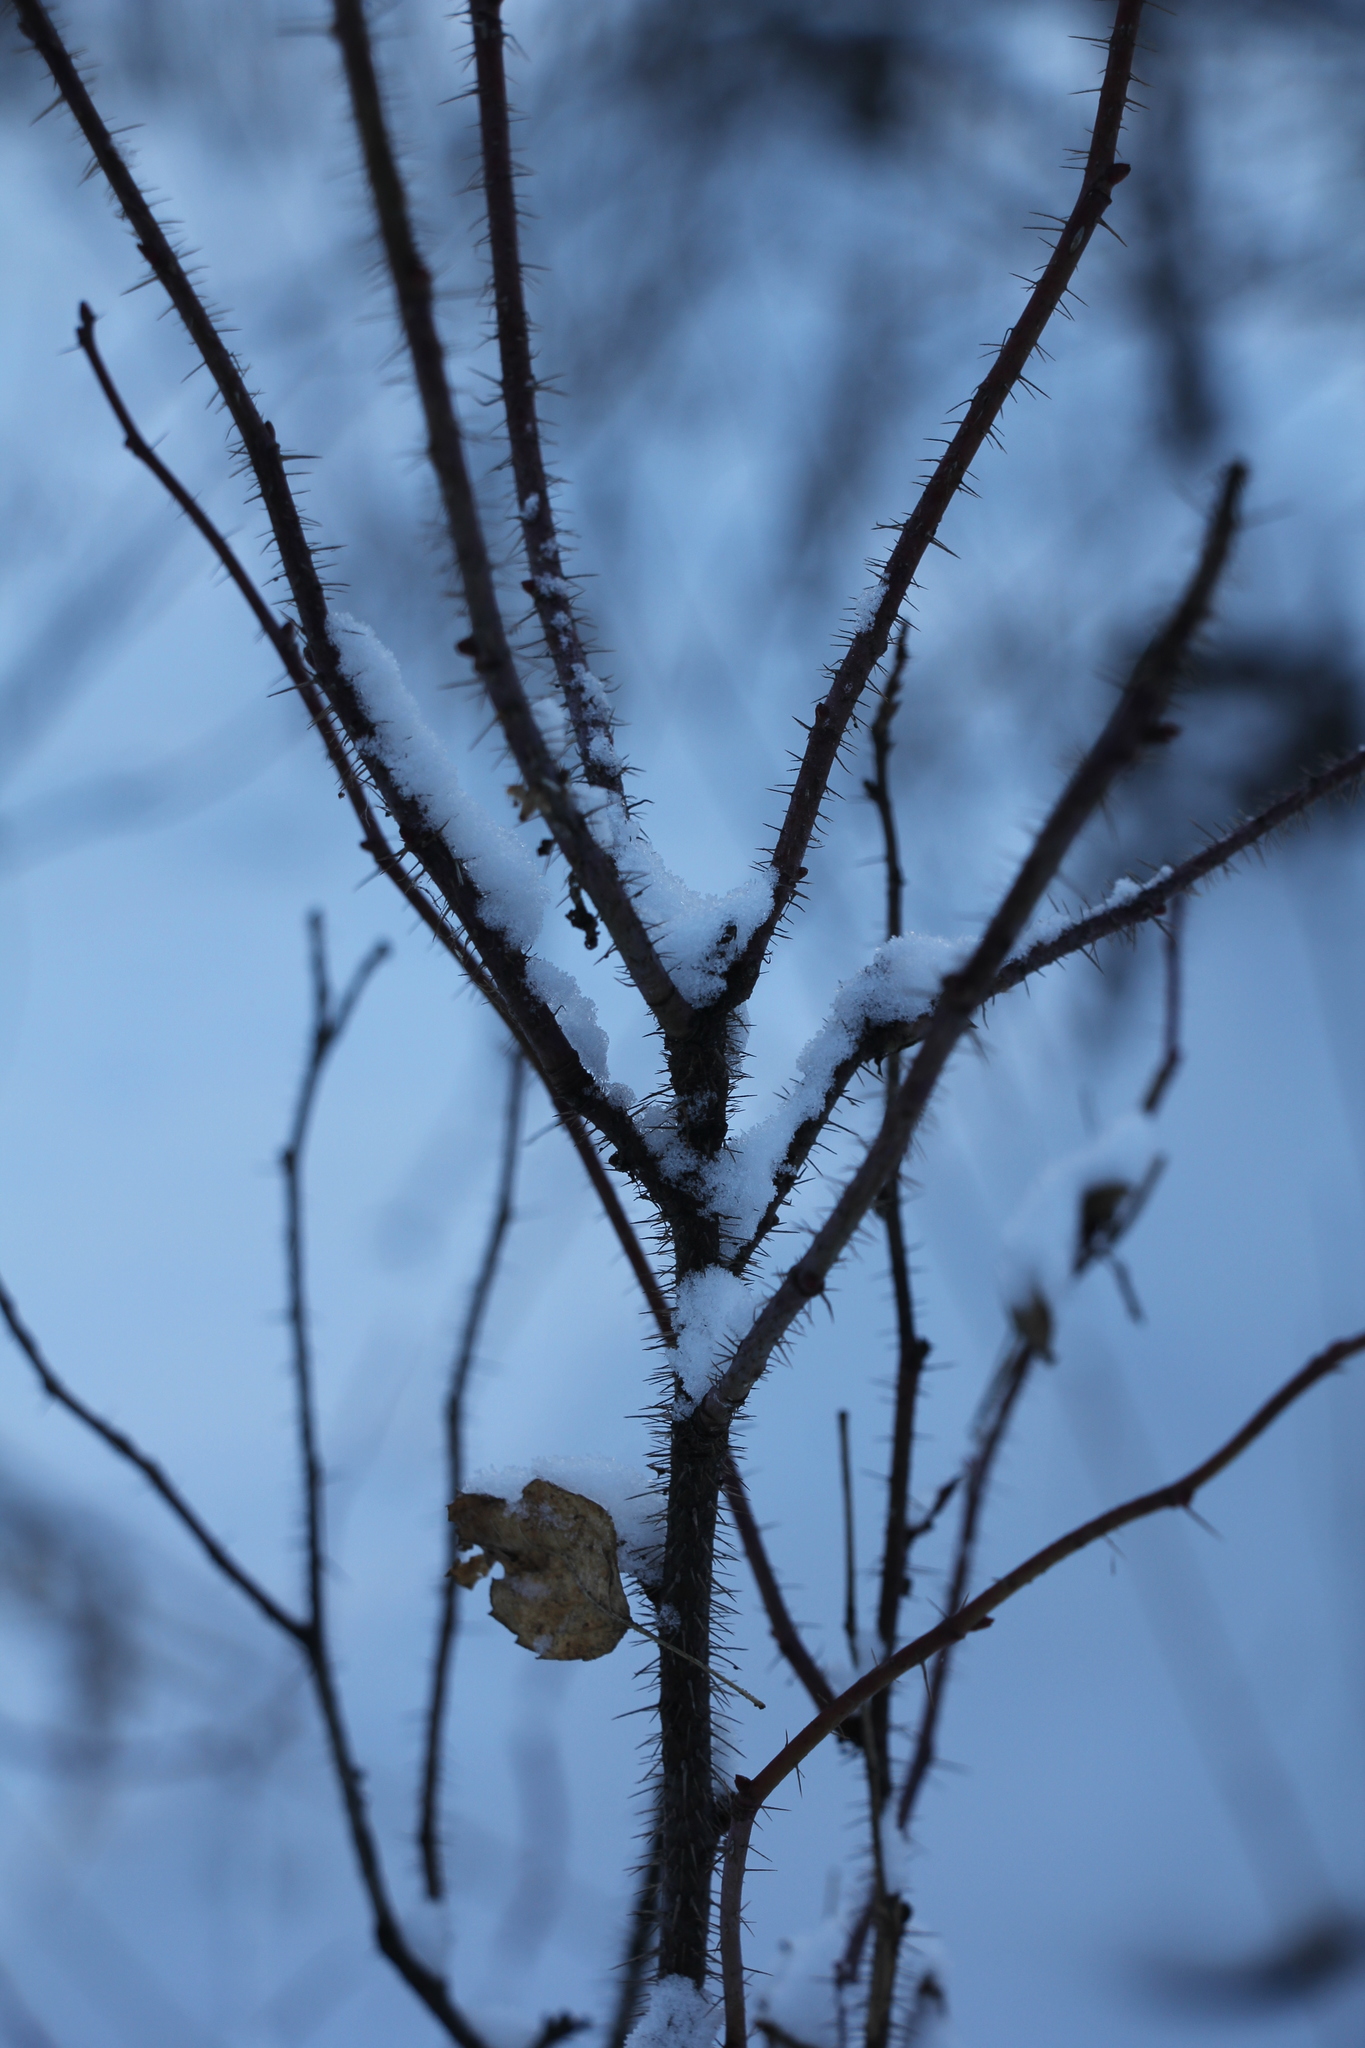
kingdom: Plantae
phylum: Tracheophyta
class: Magnoliopsida
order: Rosales
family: Rosaceae
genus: Rosa
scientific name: Rosa acicularis
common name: Prickly rose
